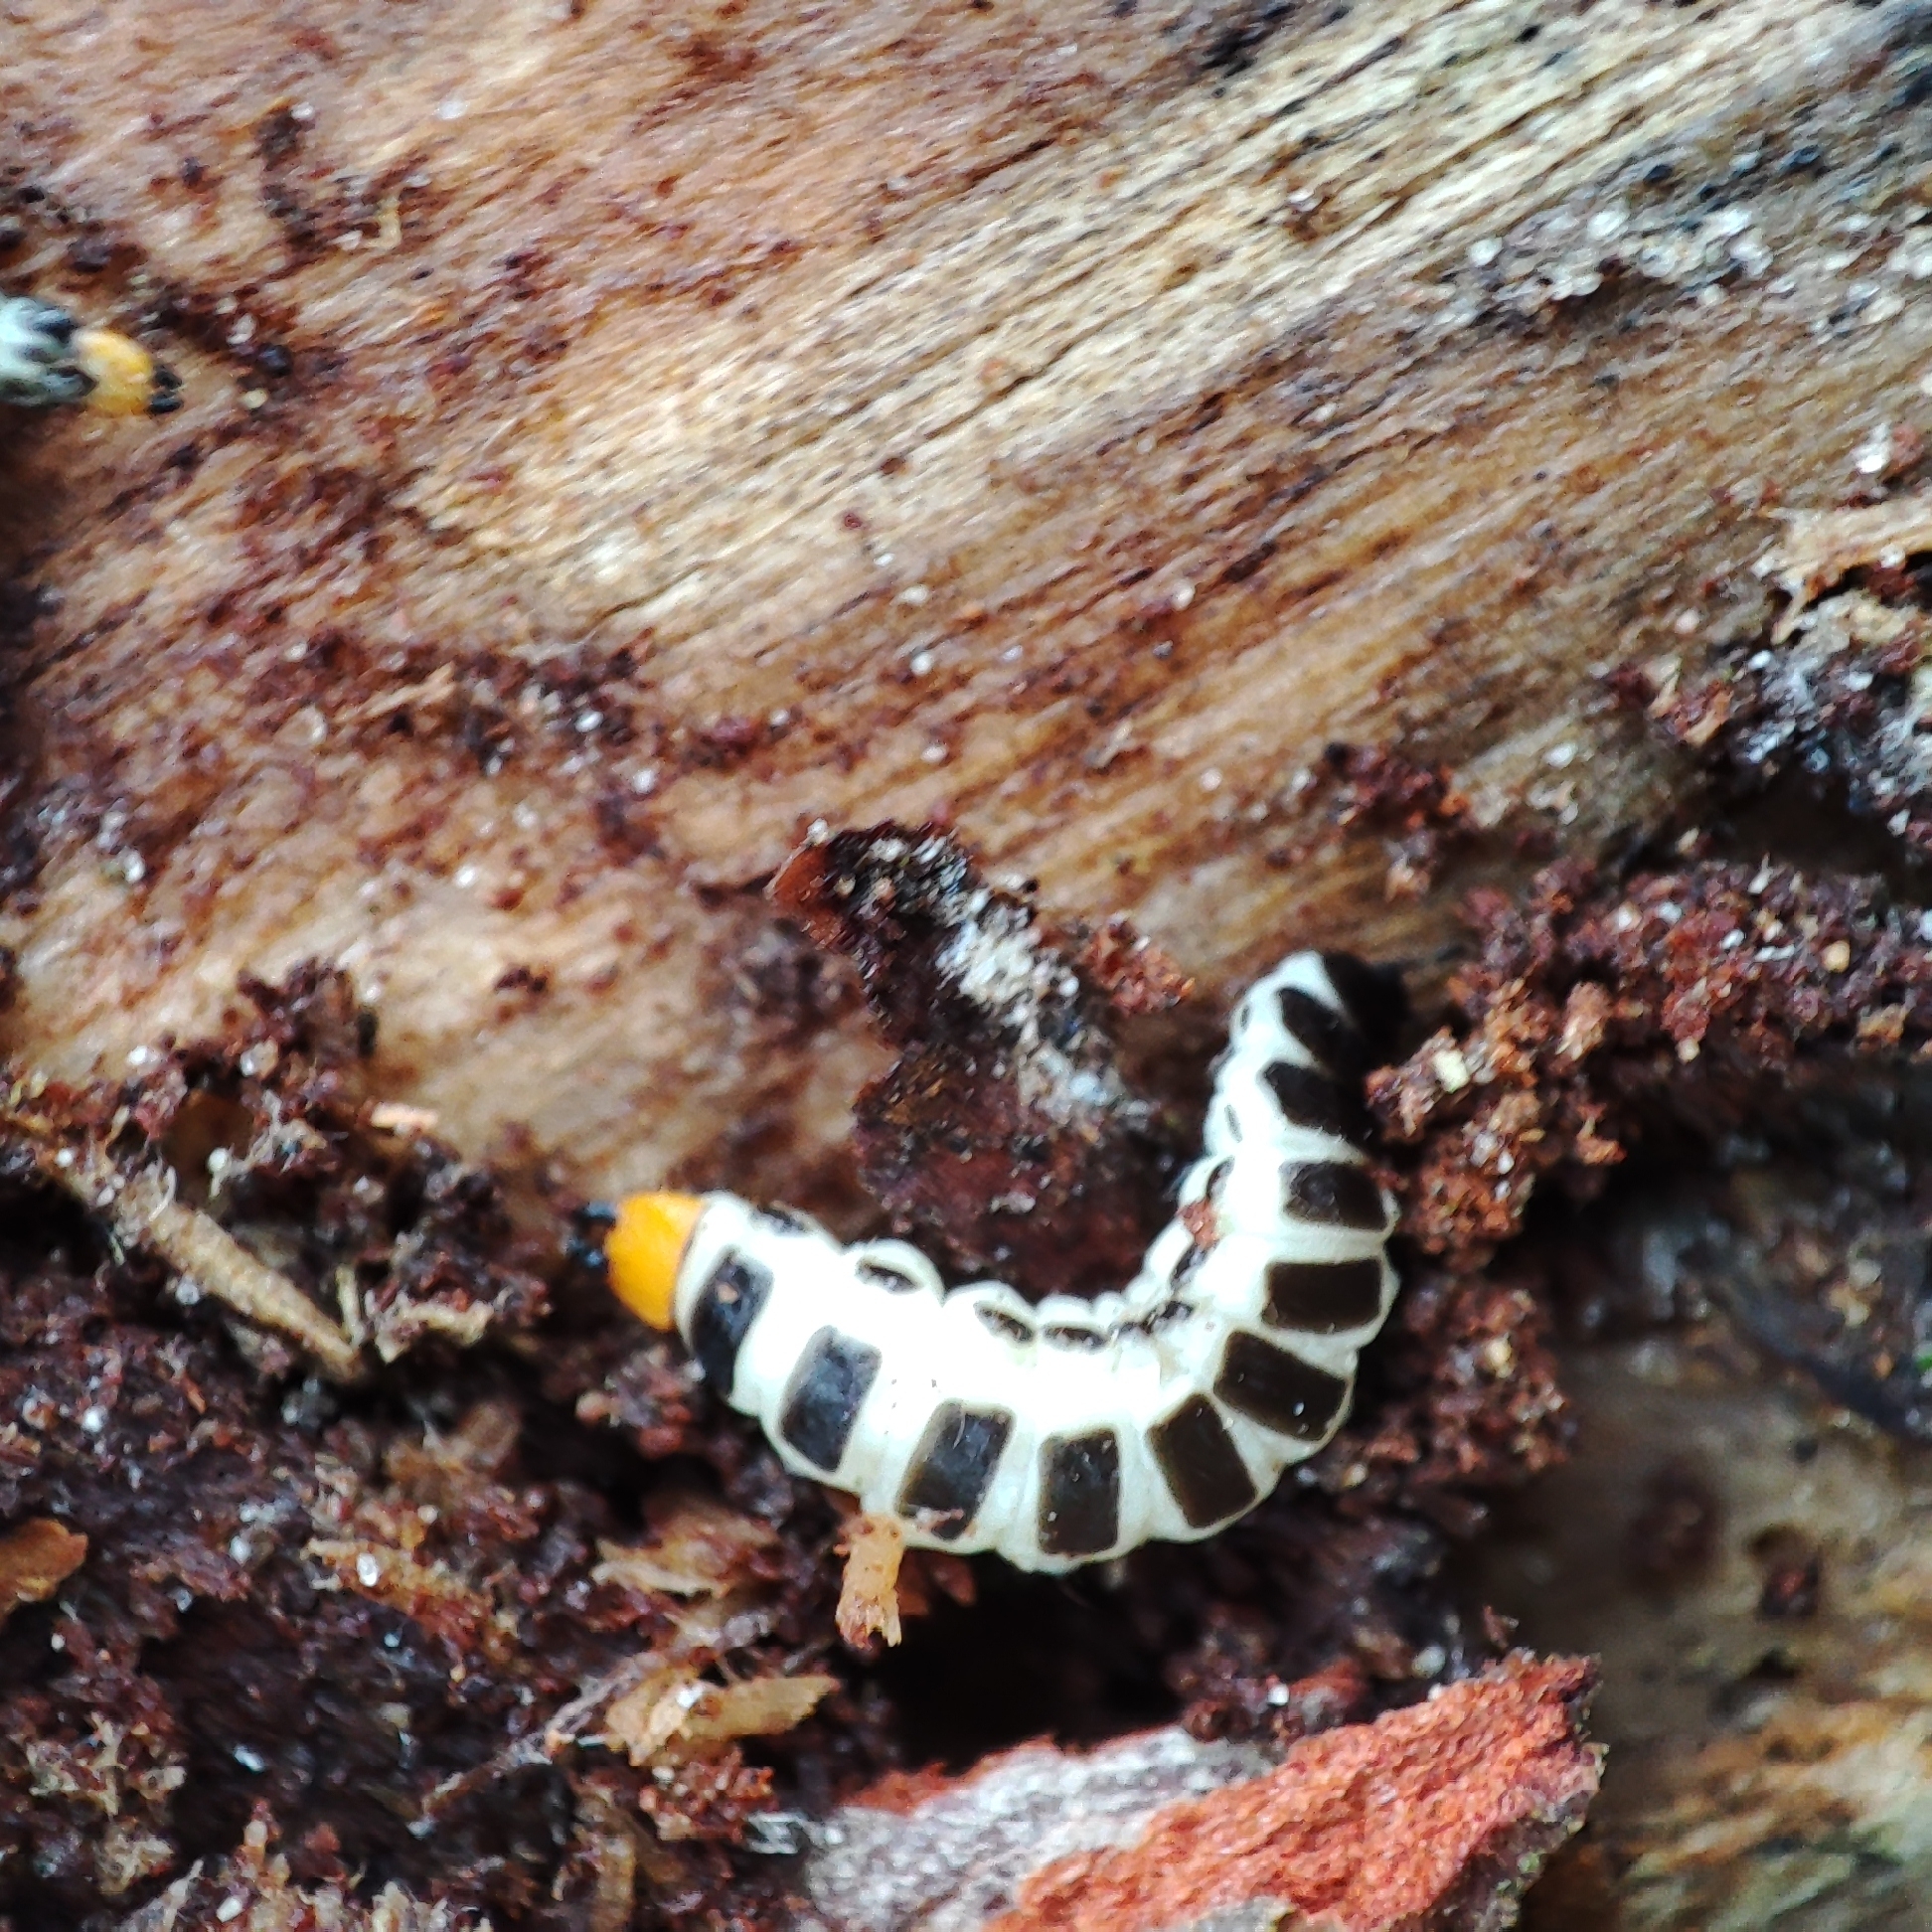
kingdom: Animalia
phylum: Arthropoda
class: Insecta
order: Coleoptera
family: Lycidae
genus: Lygistopterus
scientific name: Lygistopterus sanguineus
